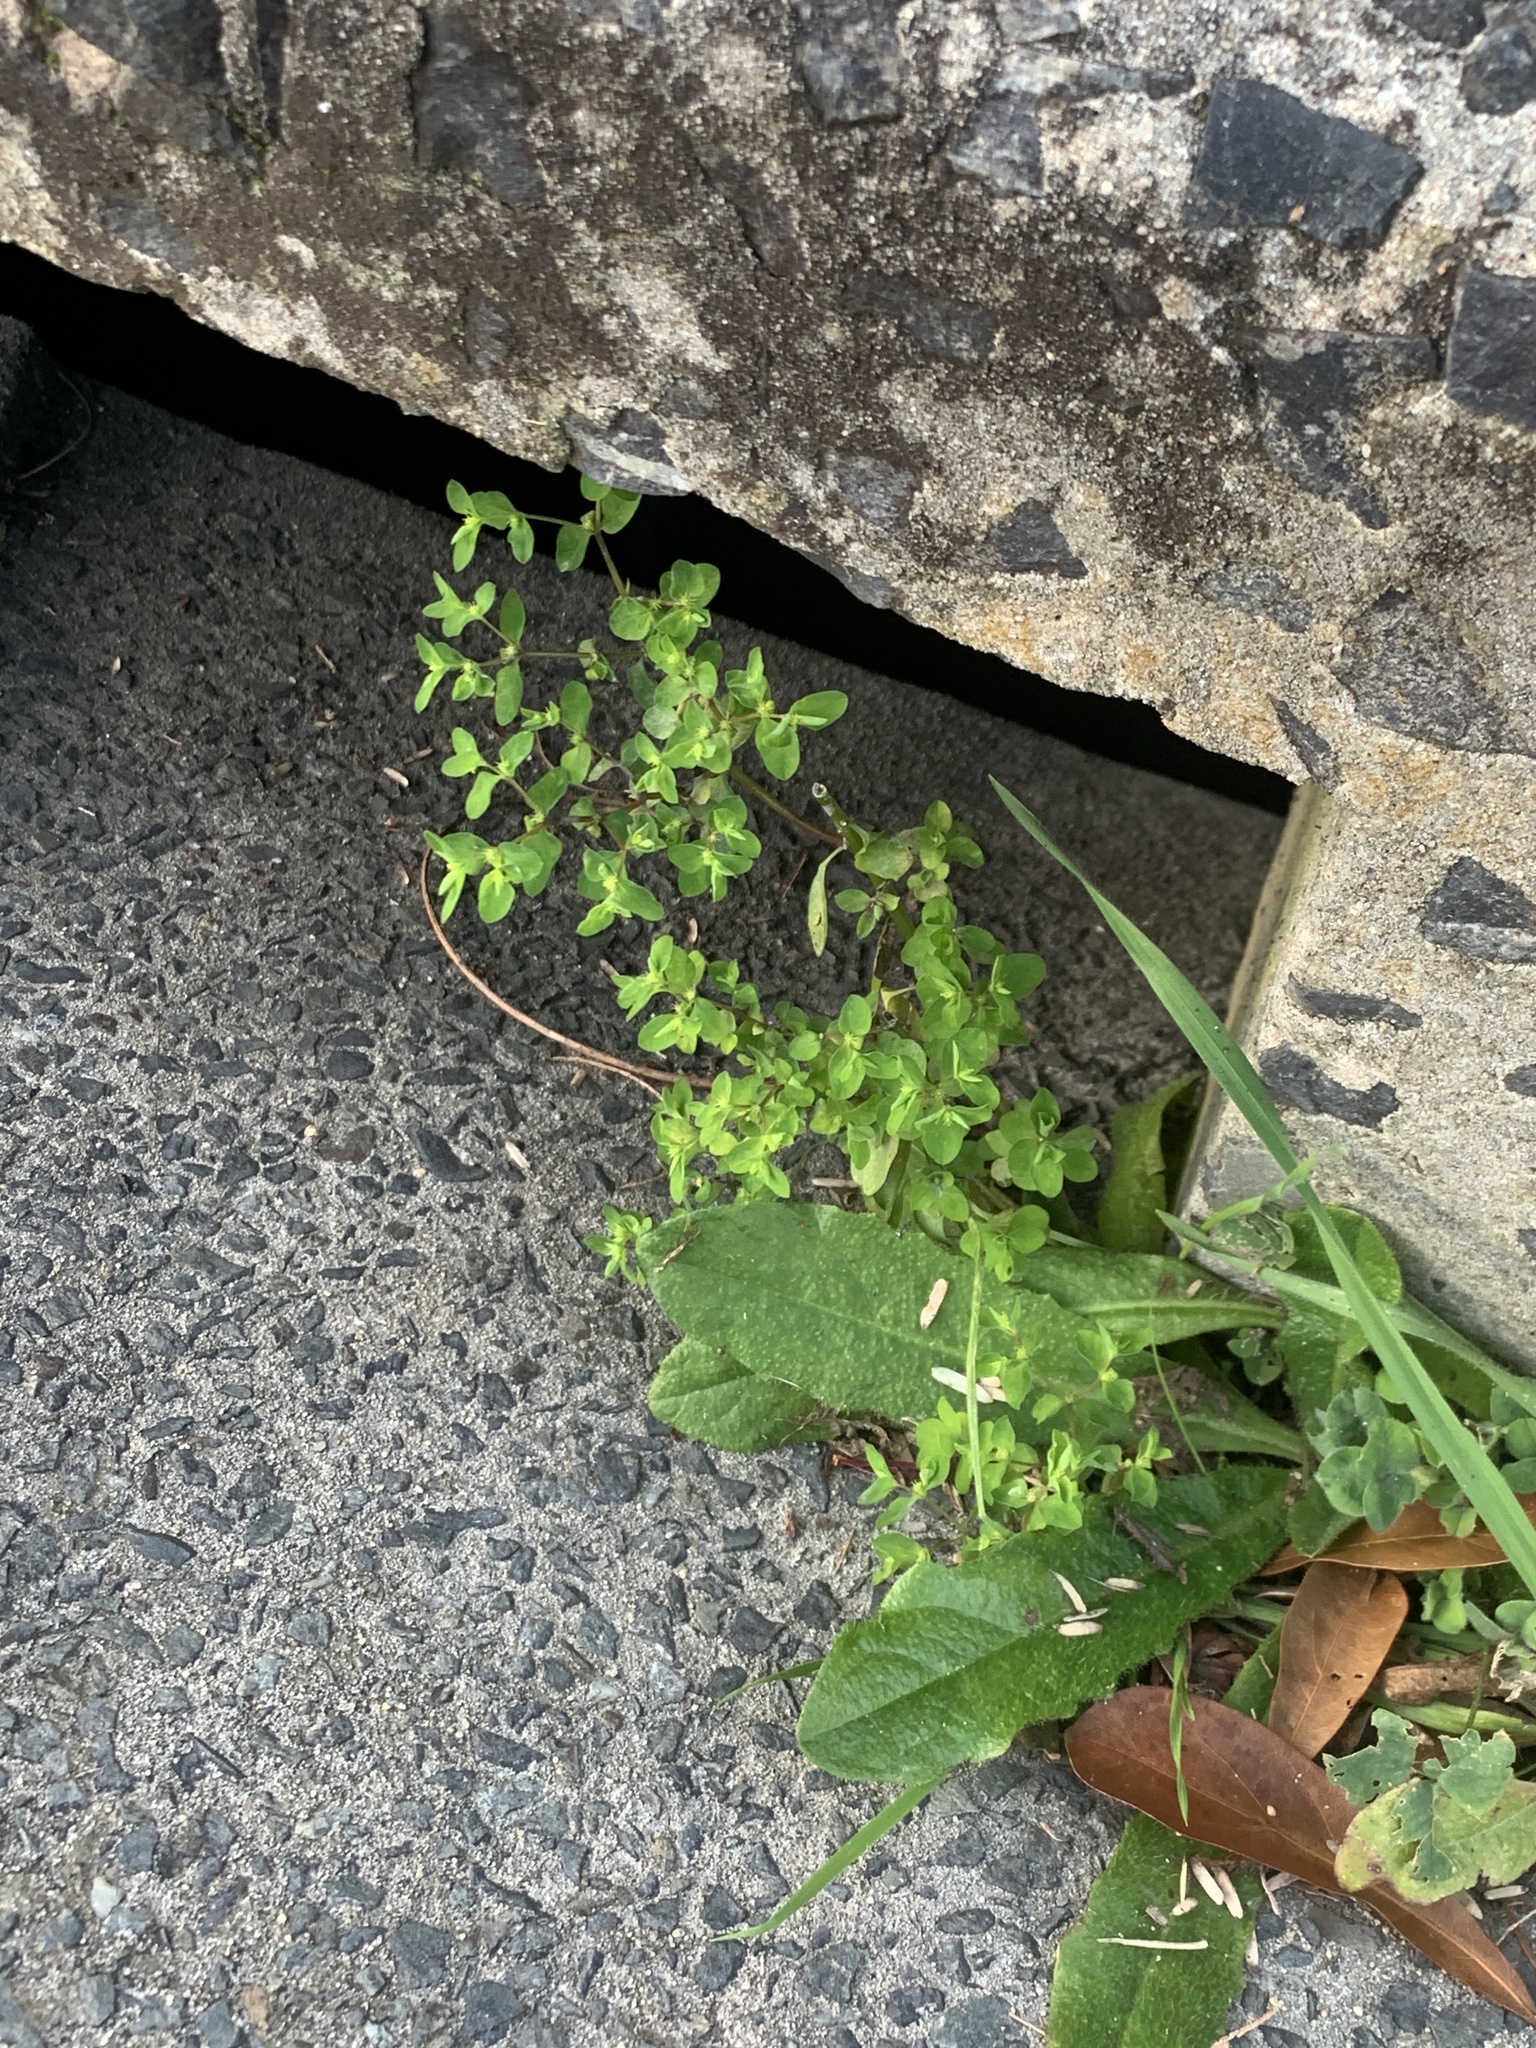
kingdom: Plantae
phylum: Tracheophyta
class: Magnoliopsida
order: Malpighiales
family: Euphorbiaceae
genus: Euphorbia
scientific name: Euphorbia peplus
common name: Petty spurge
